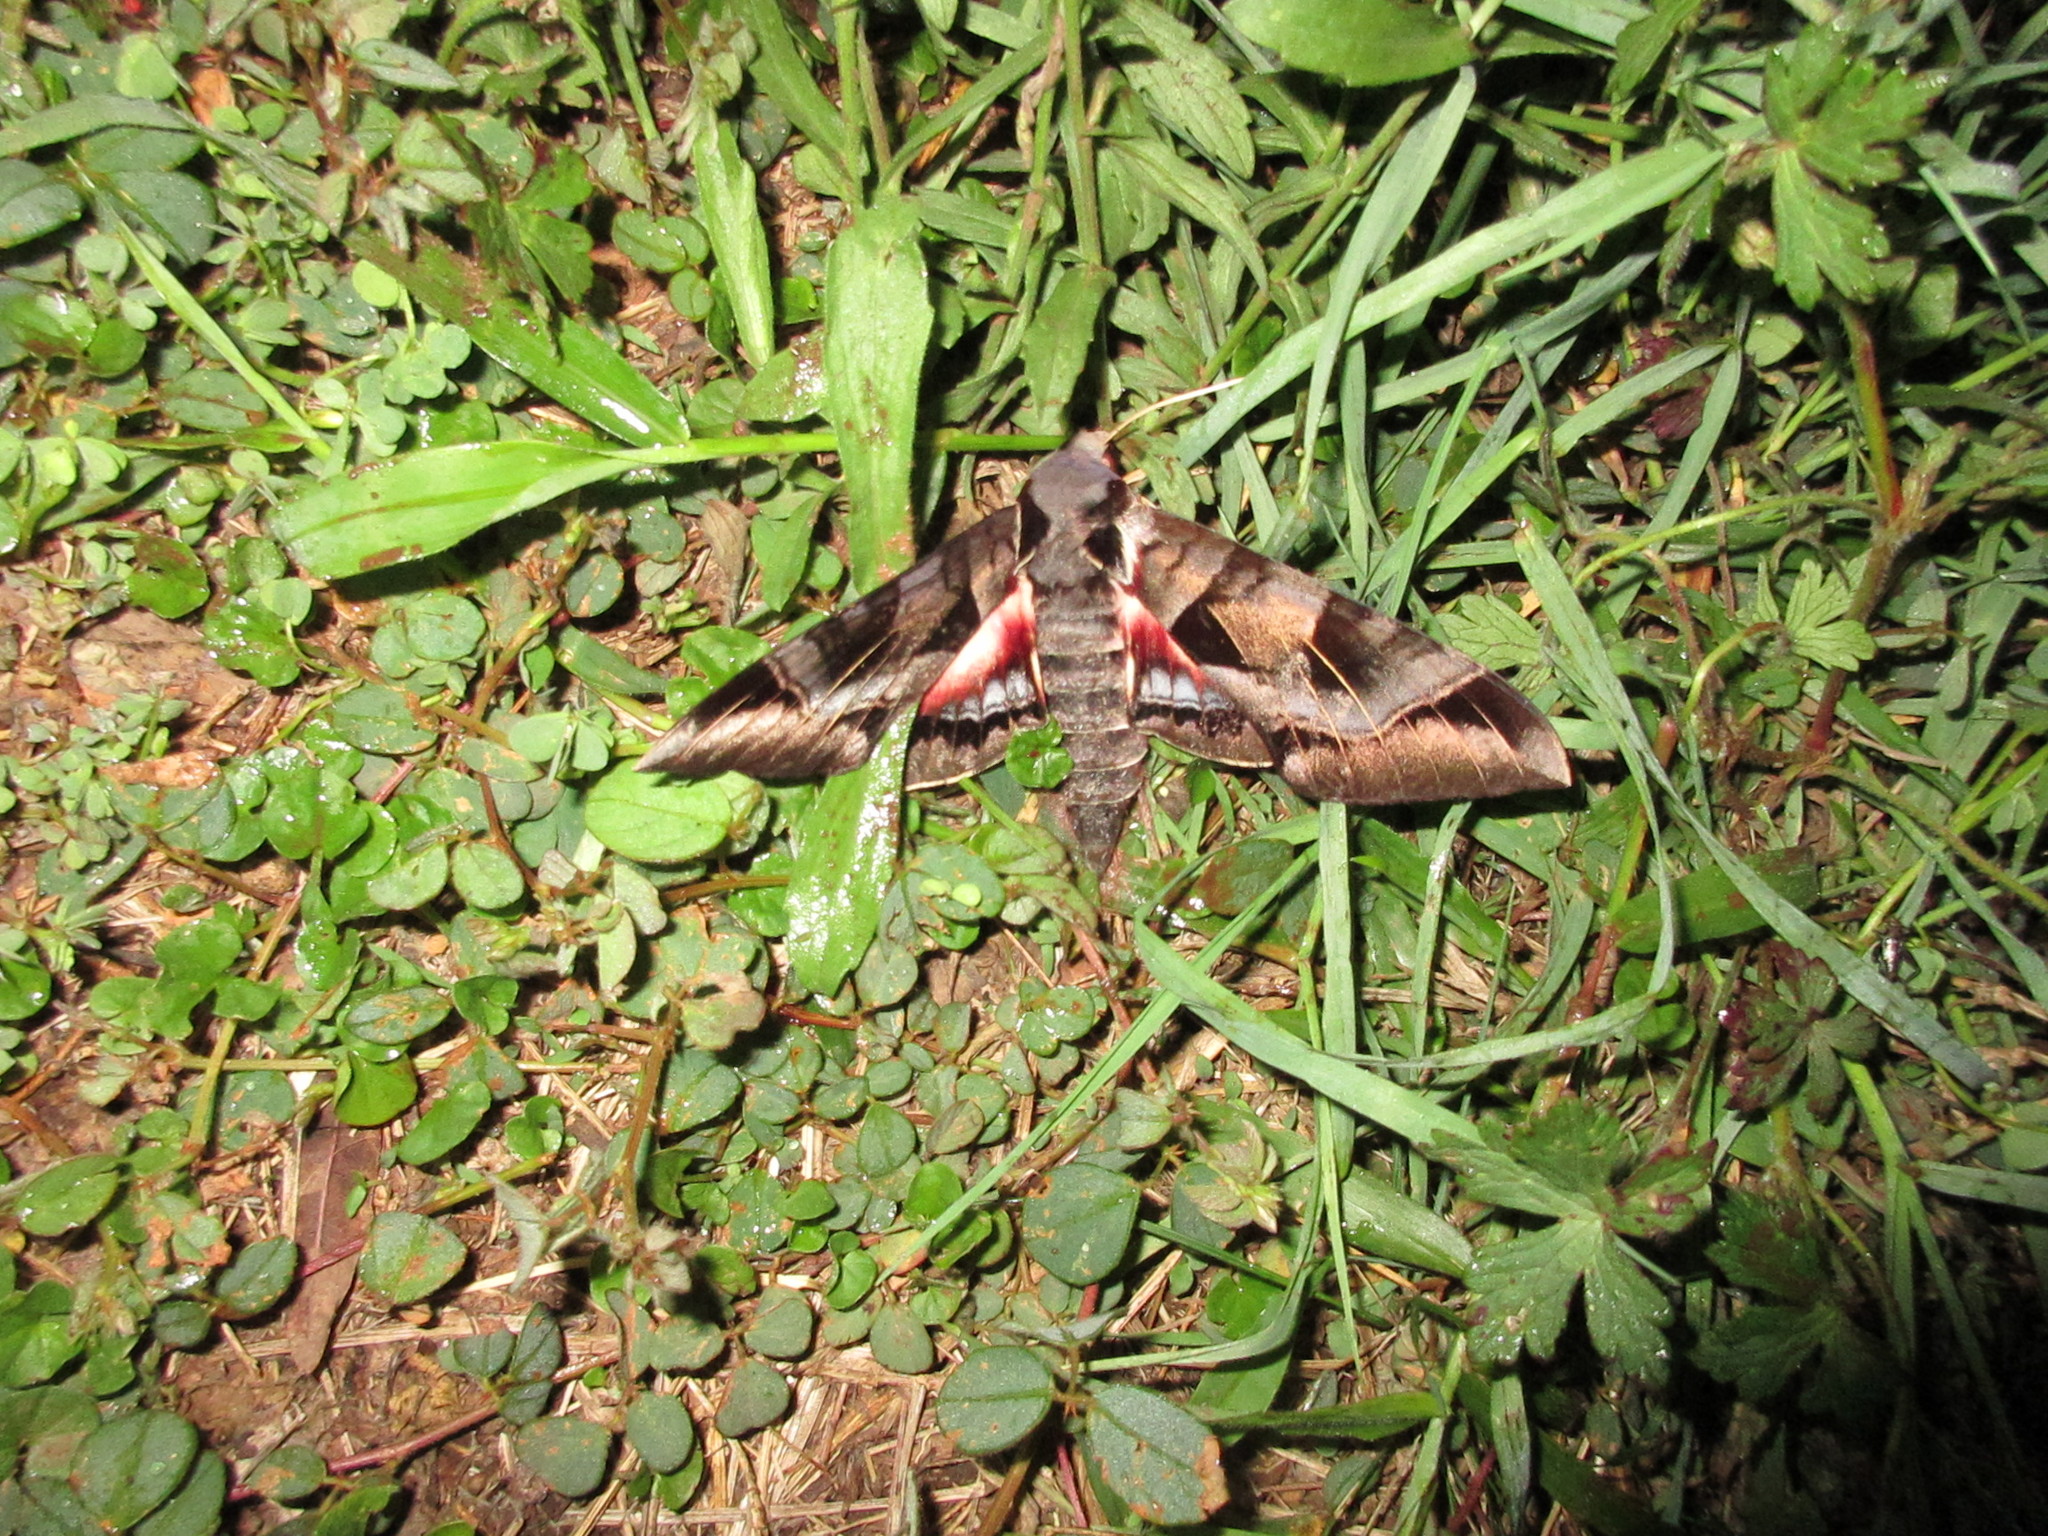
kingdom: Animalia
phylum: Arthropoda
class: Insecta
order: Lepidoptera
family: Sphingidae
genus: Eumorpha
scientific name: Eumorpha typhon
